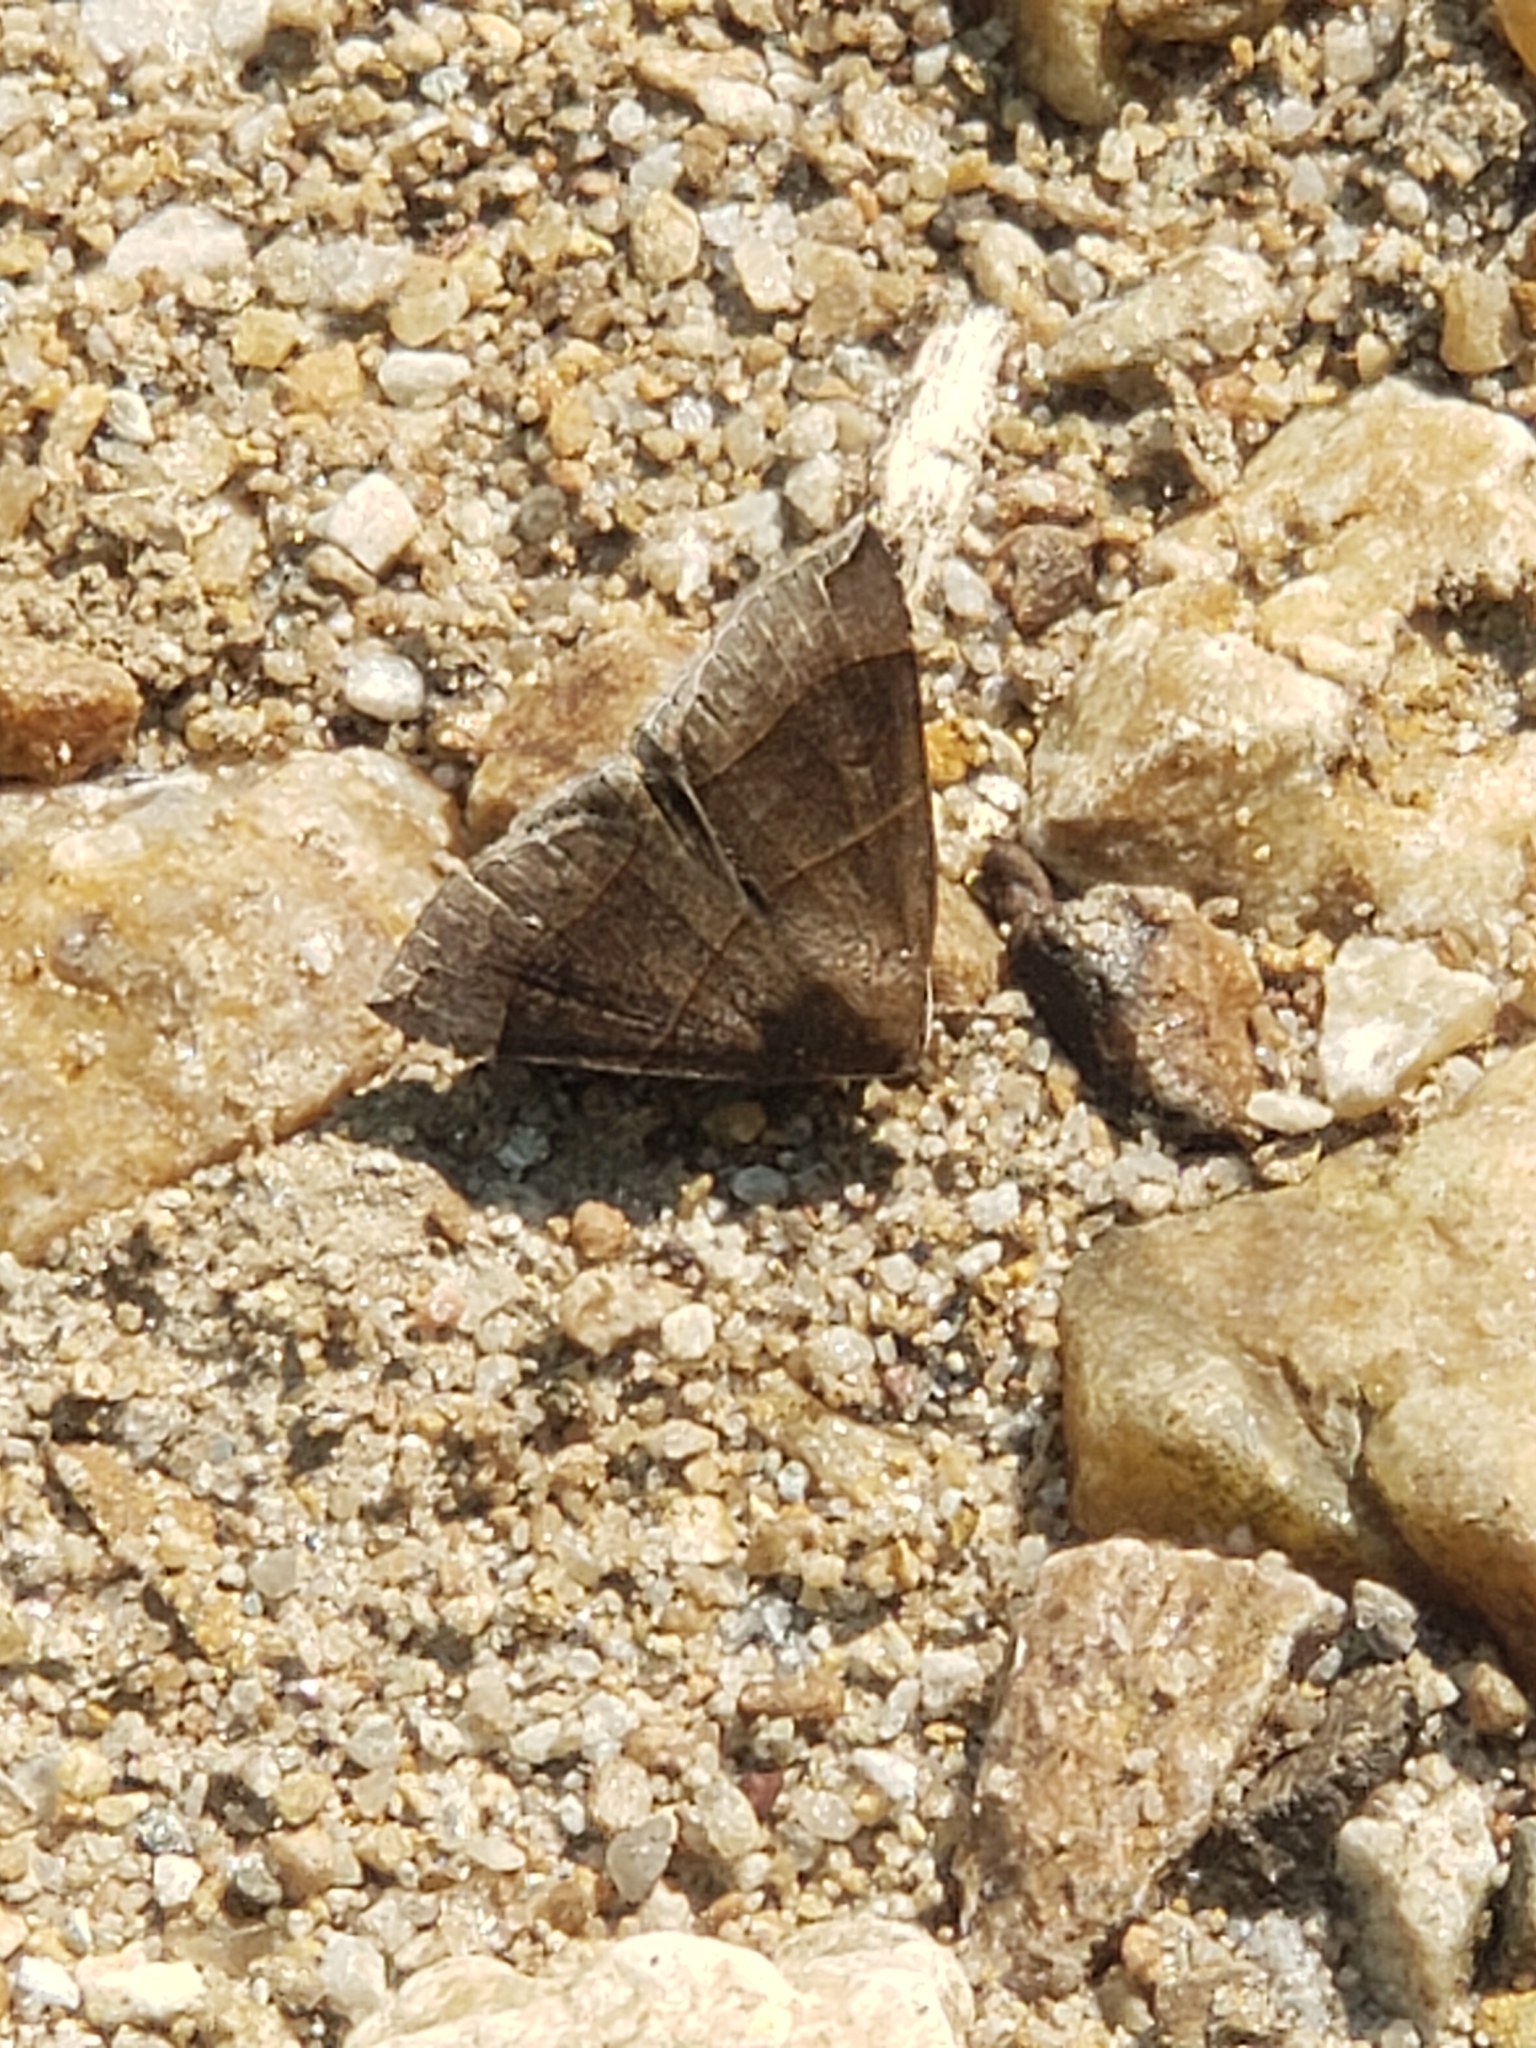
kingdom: Animalia
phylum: Arthropoda
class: Insecta
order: Lepidoptera
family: Erebidae
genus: Parallelia
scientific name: Parallelia bistriaris
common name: Maple looper moth
